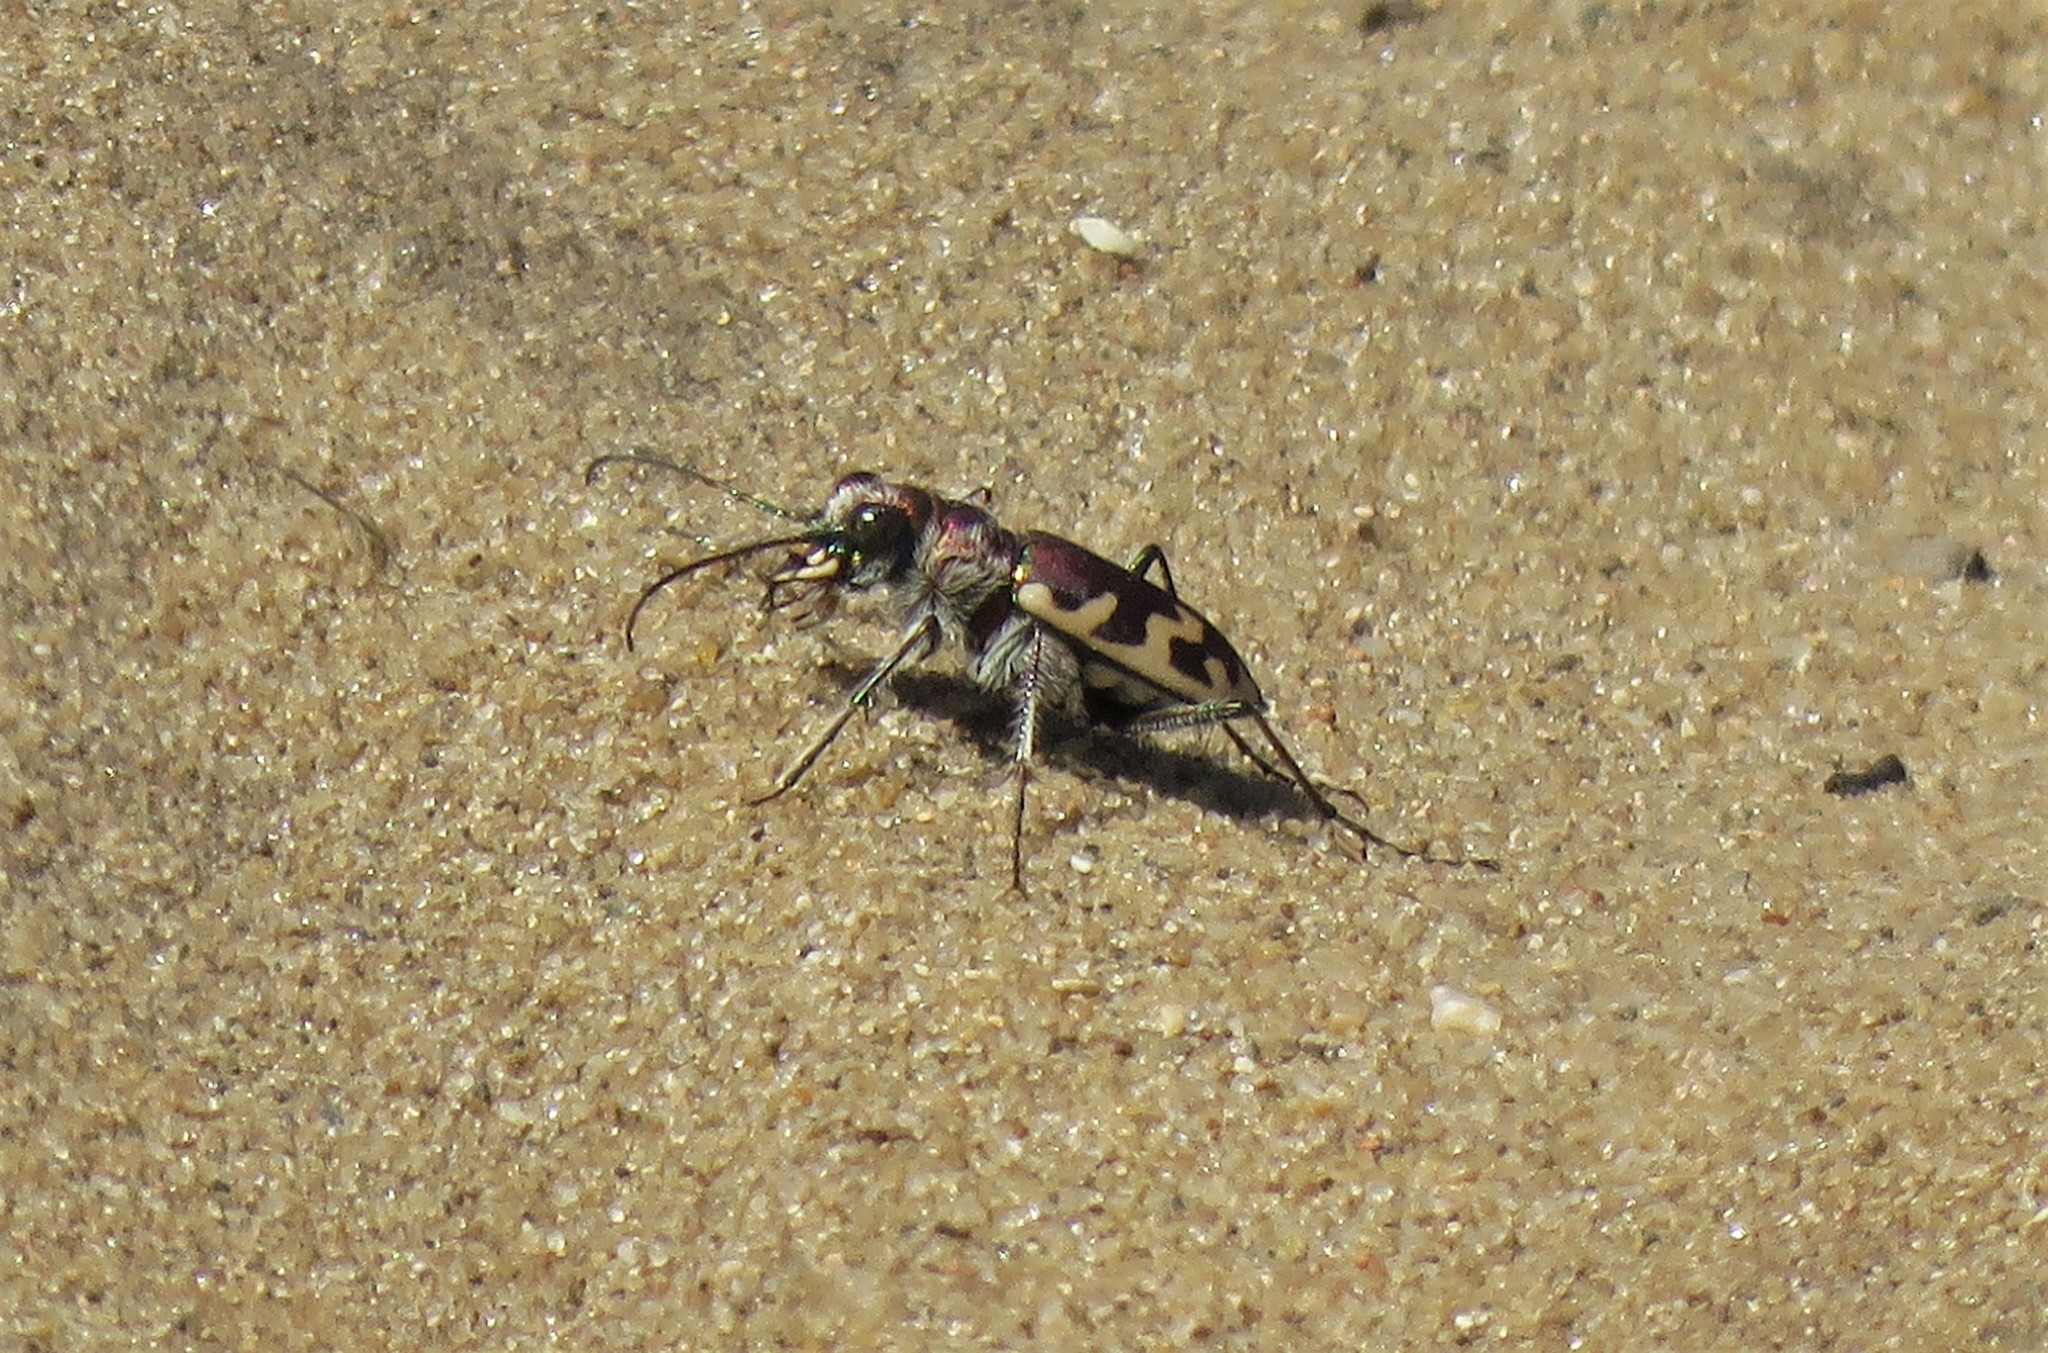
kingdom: Animalia
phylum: Arthropoda
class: Insecta
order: Coleoptera
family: Carabidae
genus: Cicindela
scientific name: Cicindela formosa
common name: Big sand tiger beetle
